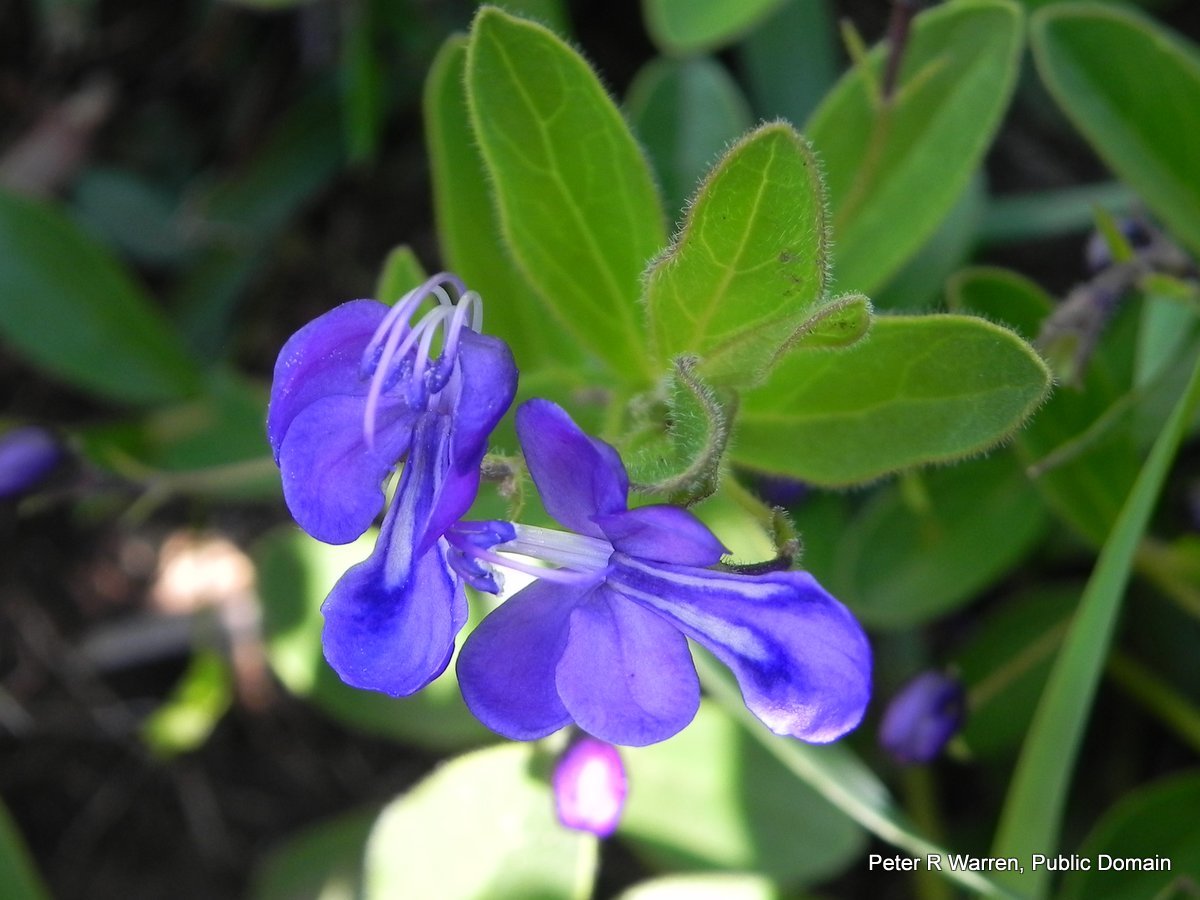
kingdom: Plantae
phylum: Tracheophyta
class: Magnoliopsida
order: Lamiales
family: Lamiaceae
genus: Rotheca
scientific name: Rotheca hirsuta
